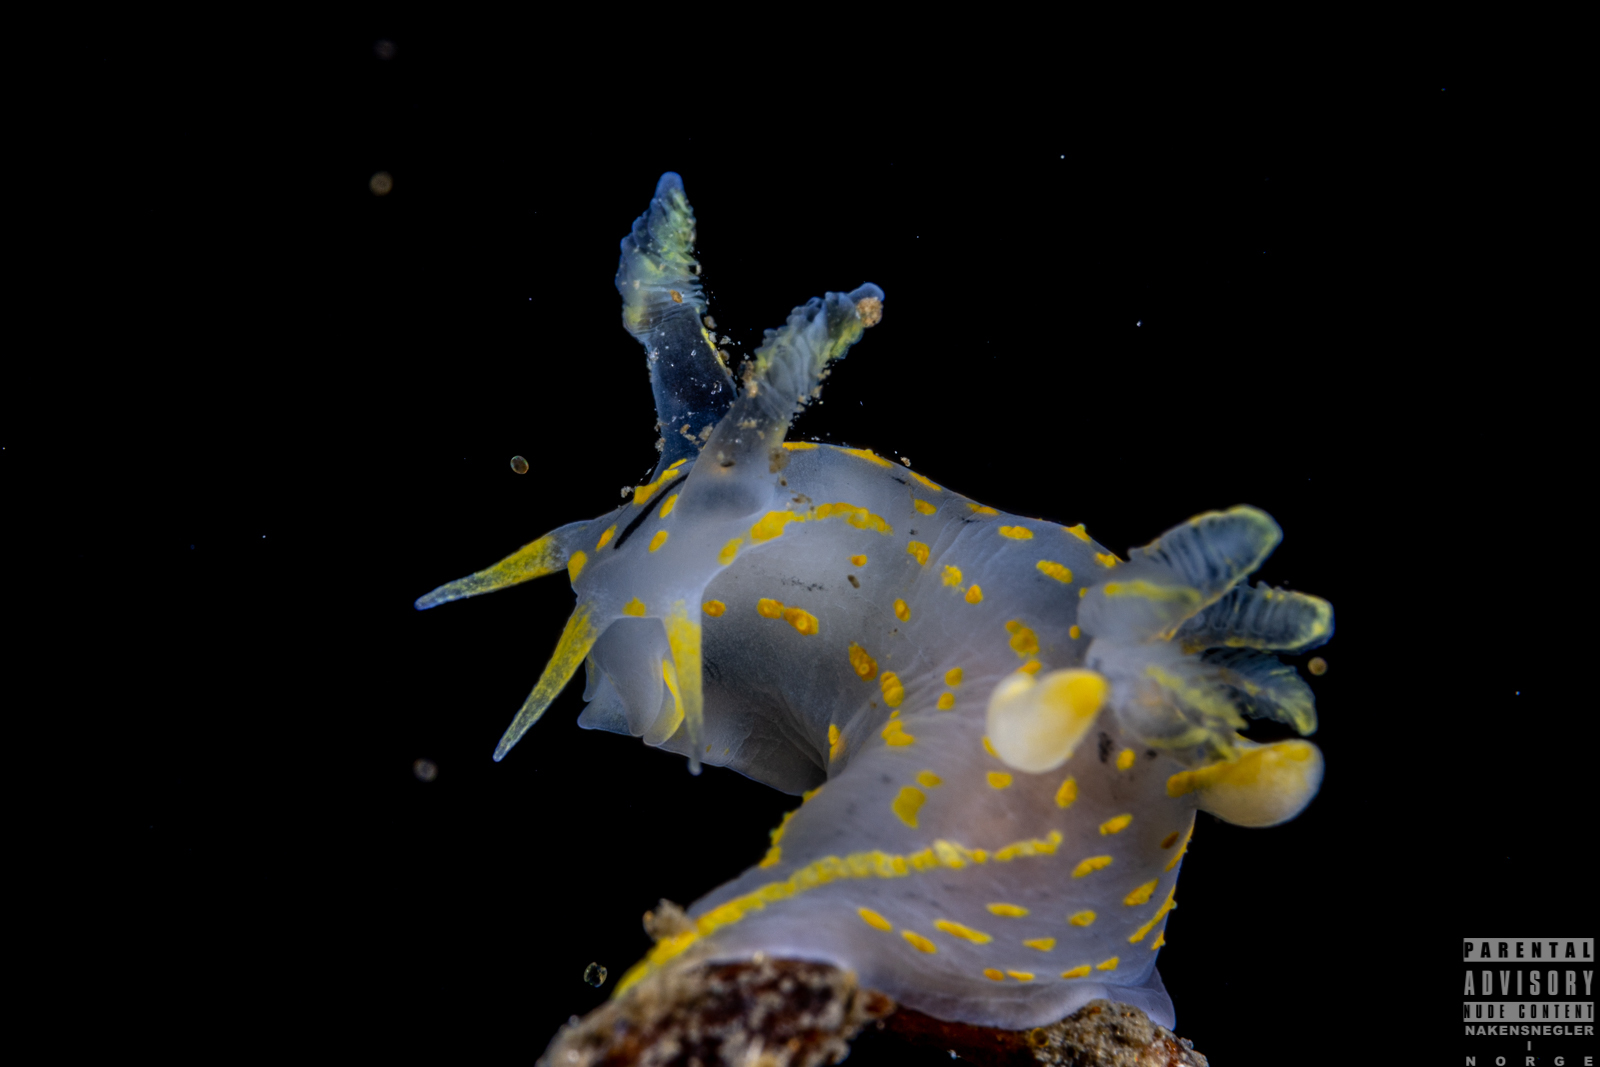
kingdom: Animalia
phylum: Mollusca
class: Gastropoda
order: Nudibranchia
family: Polyceridae
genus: Polycera
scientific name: Polycera quadrilineata
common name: Four-striped polycera
